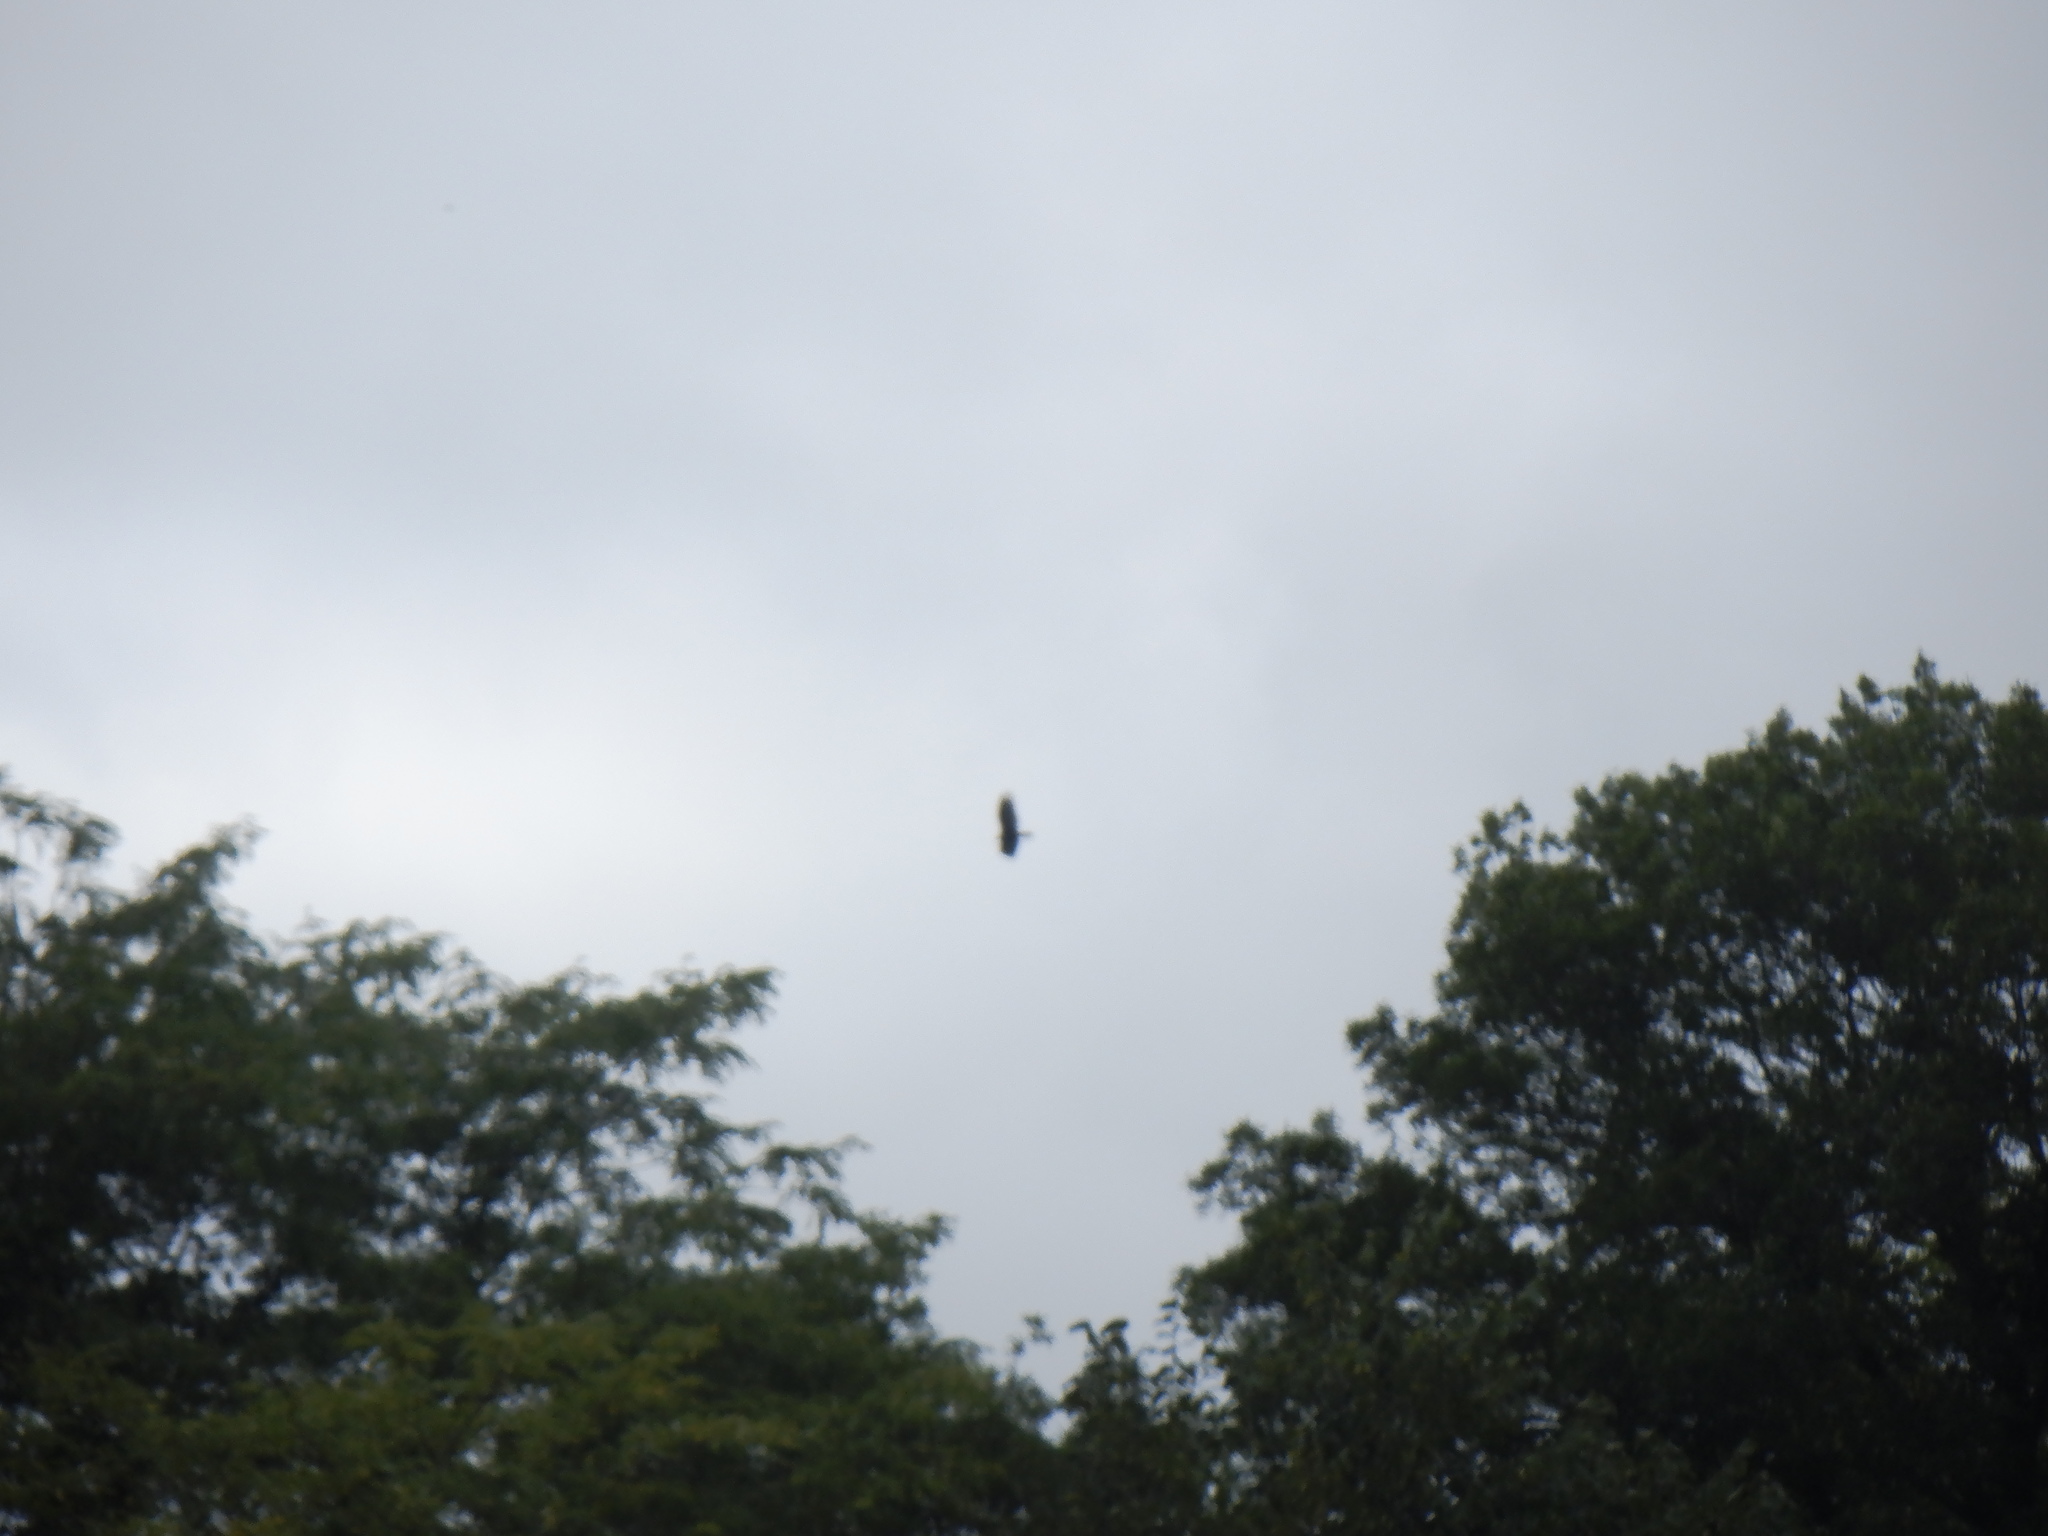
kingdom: Animalia
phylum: Chordata
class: Aves
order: Accipitriformes
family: Accipitridae
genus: Haliaeetus
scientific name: Haliaeetus leucocephalus
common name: Bald eagle
